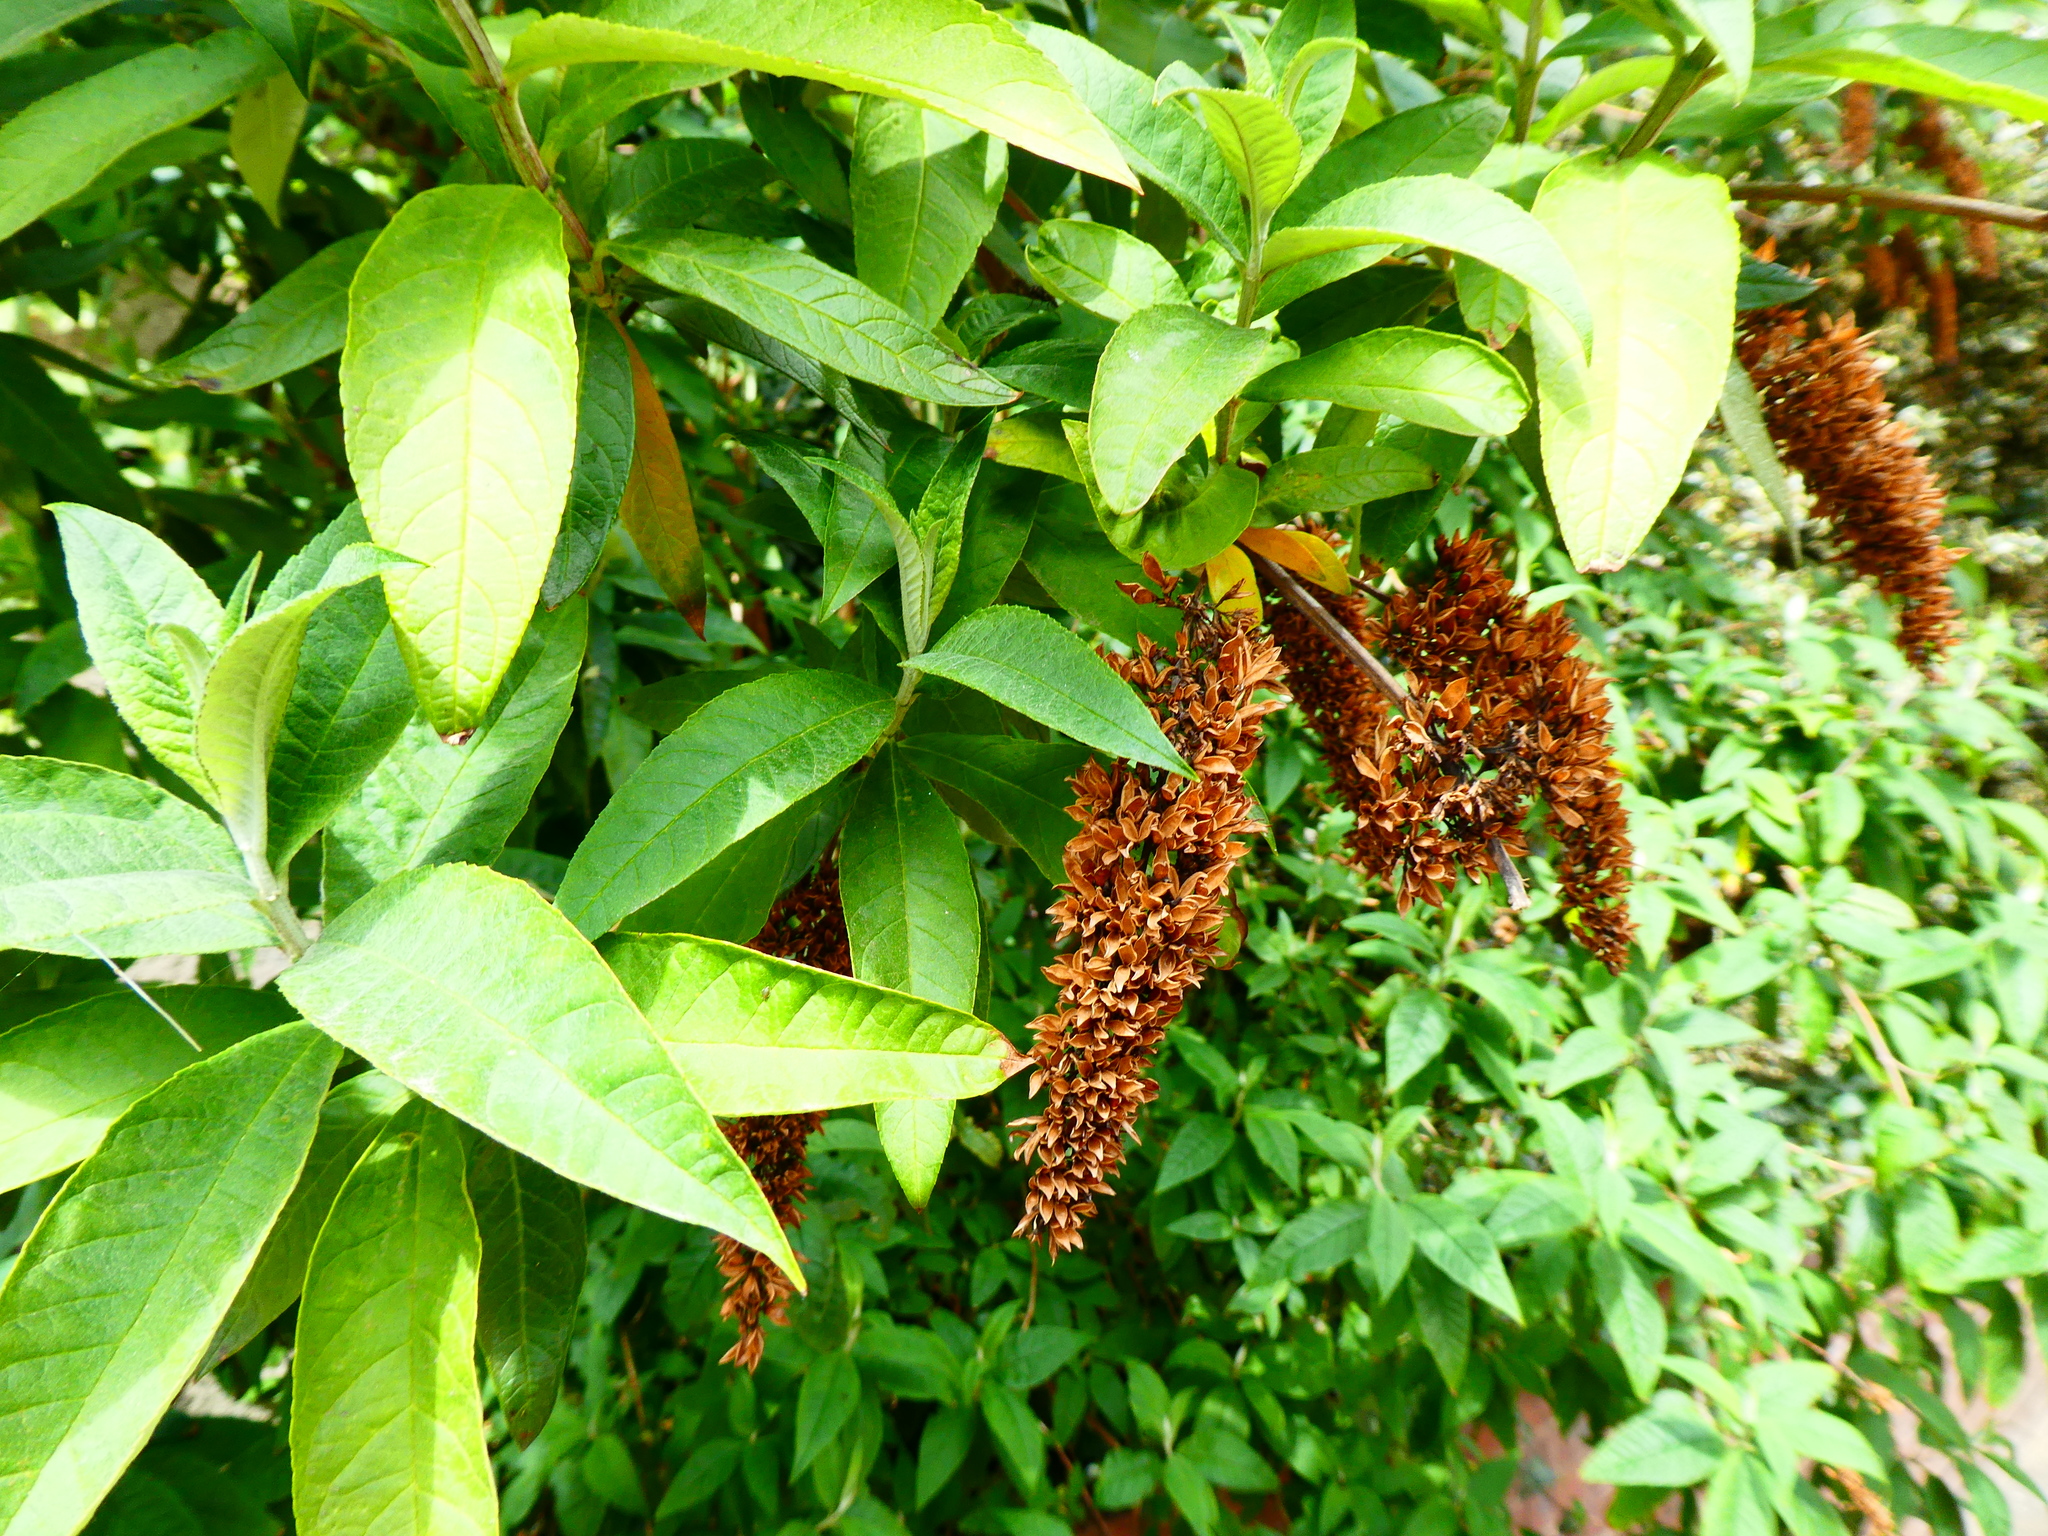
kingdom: Plantae
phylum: Tracheophyta
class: Magnoliopsida
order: Lamiales
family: Scrophulariaceae
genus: Buddleja
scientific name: Buddleja davidii
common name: Butterfly-bush
